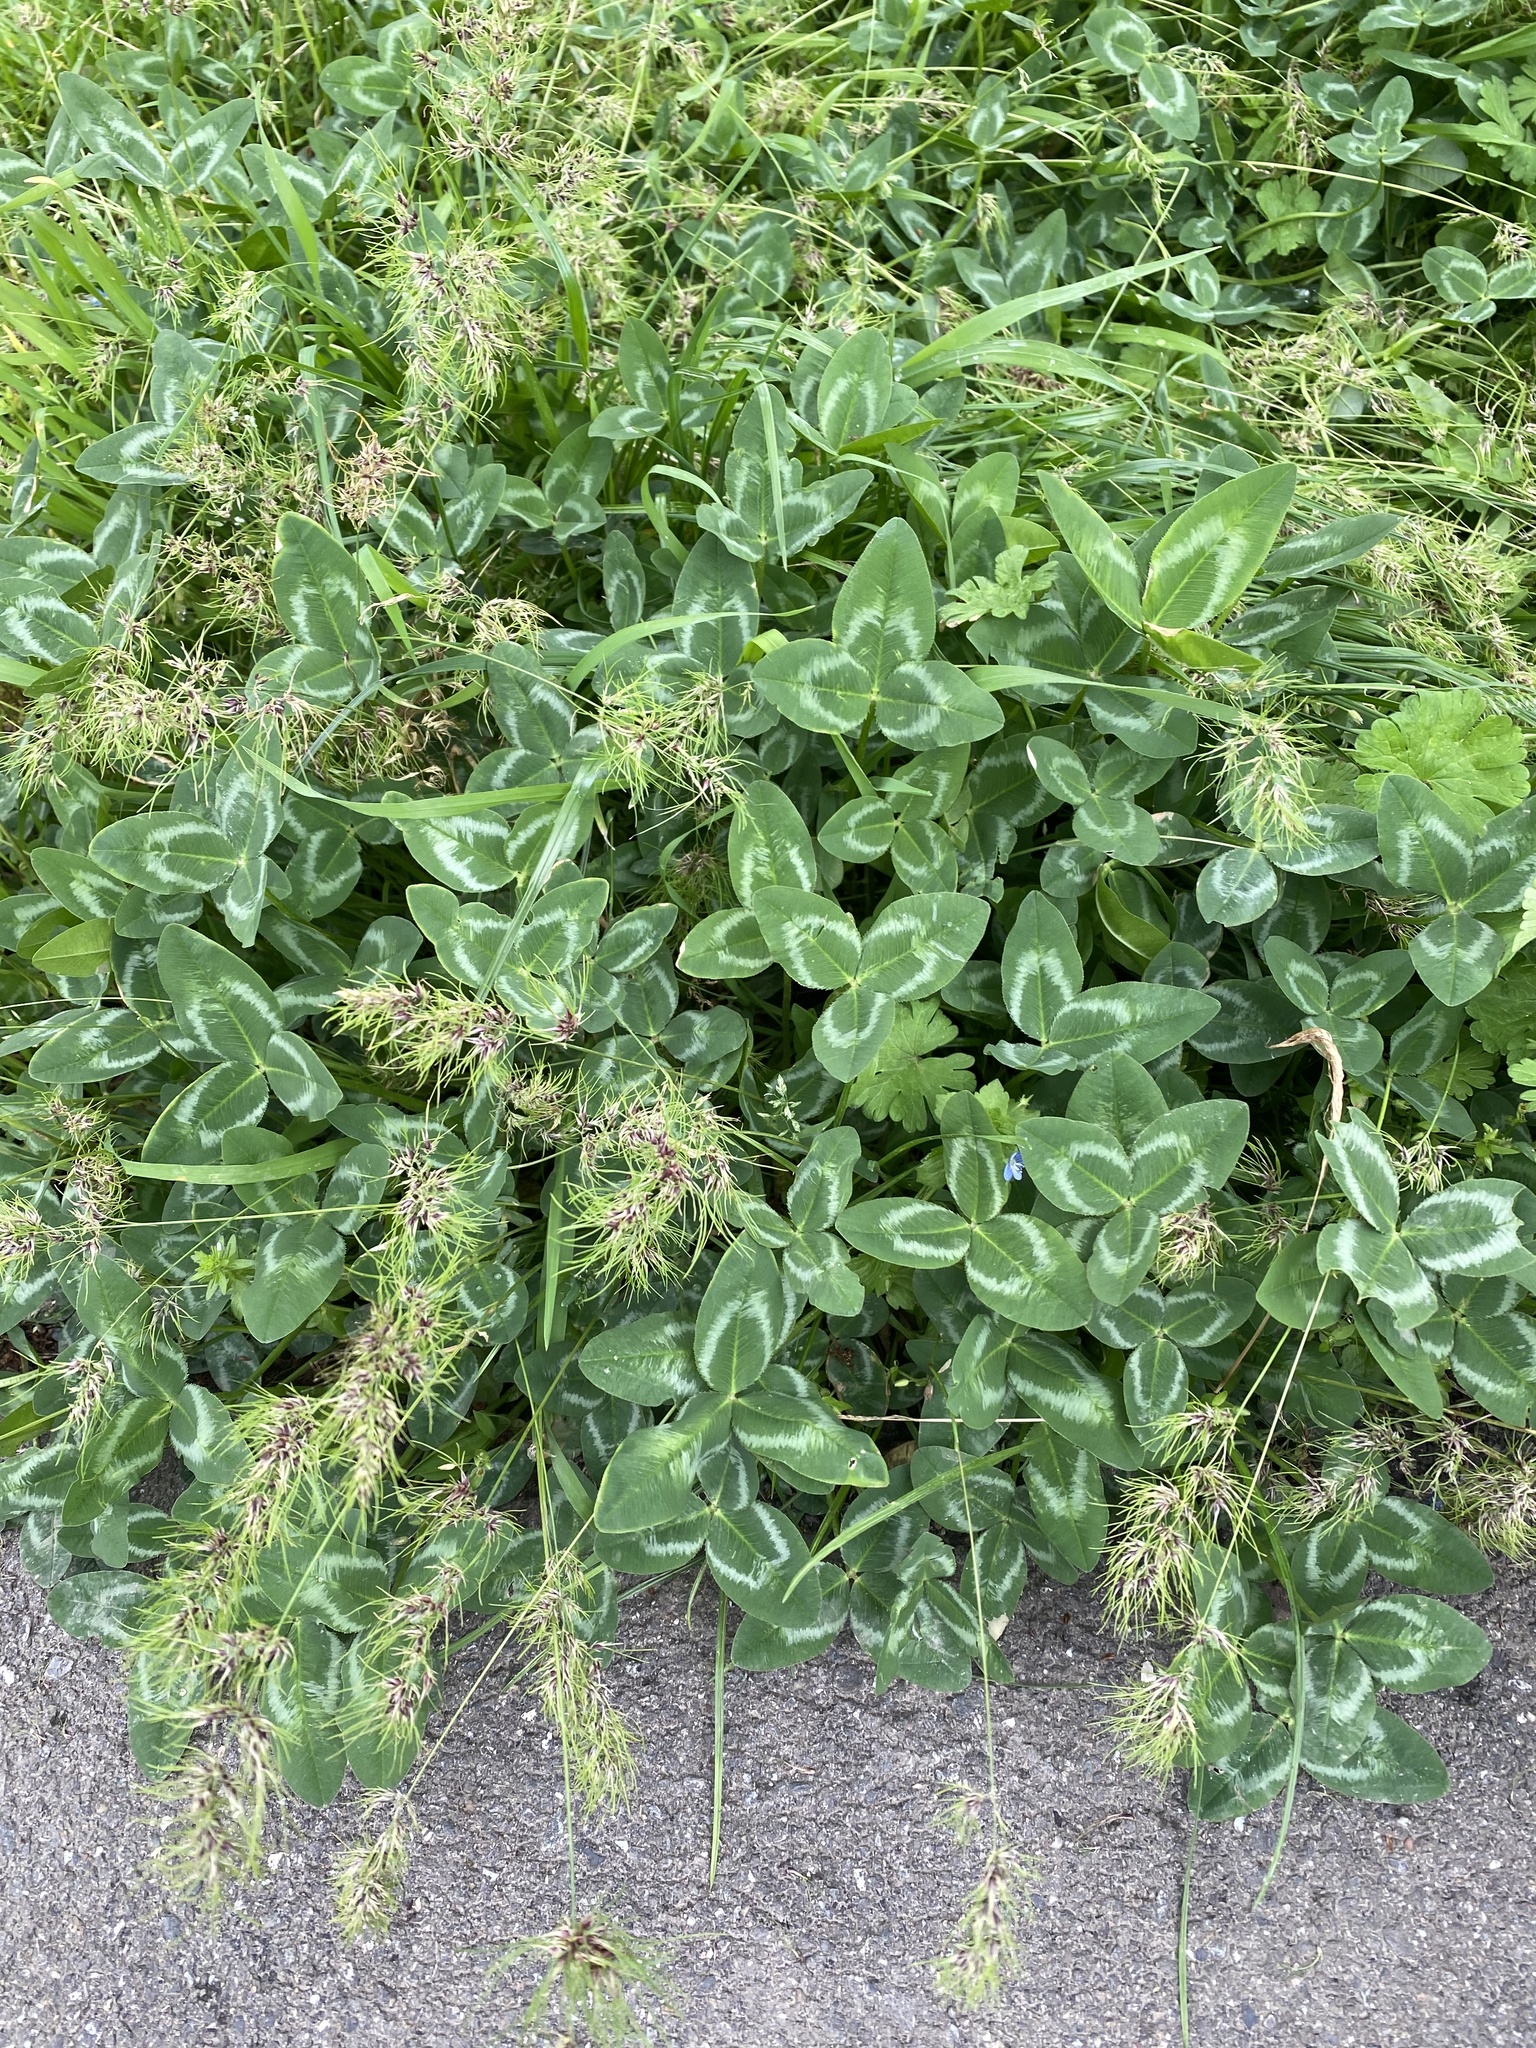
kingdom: Plantae
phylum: Tracheophyta
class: Magnoliopsida
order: Fabales
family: Fabaceae
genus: Trifolium
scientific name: Trifolium pratense
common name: Red clover
